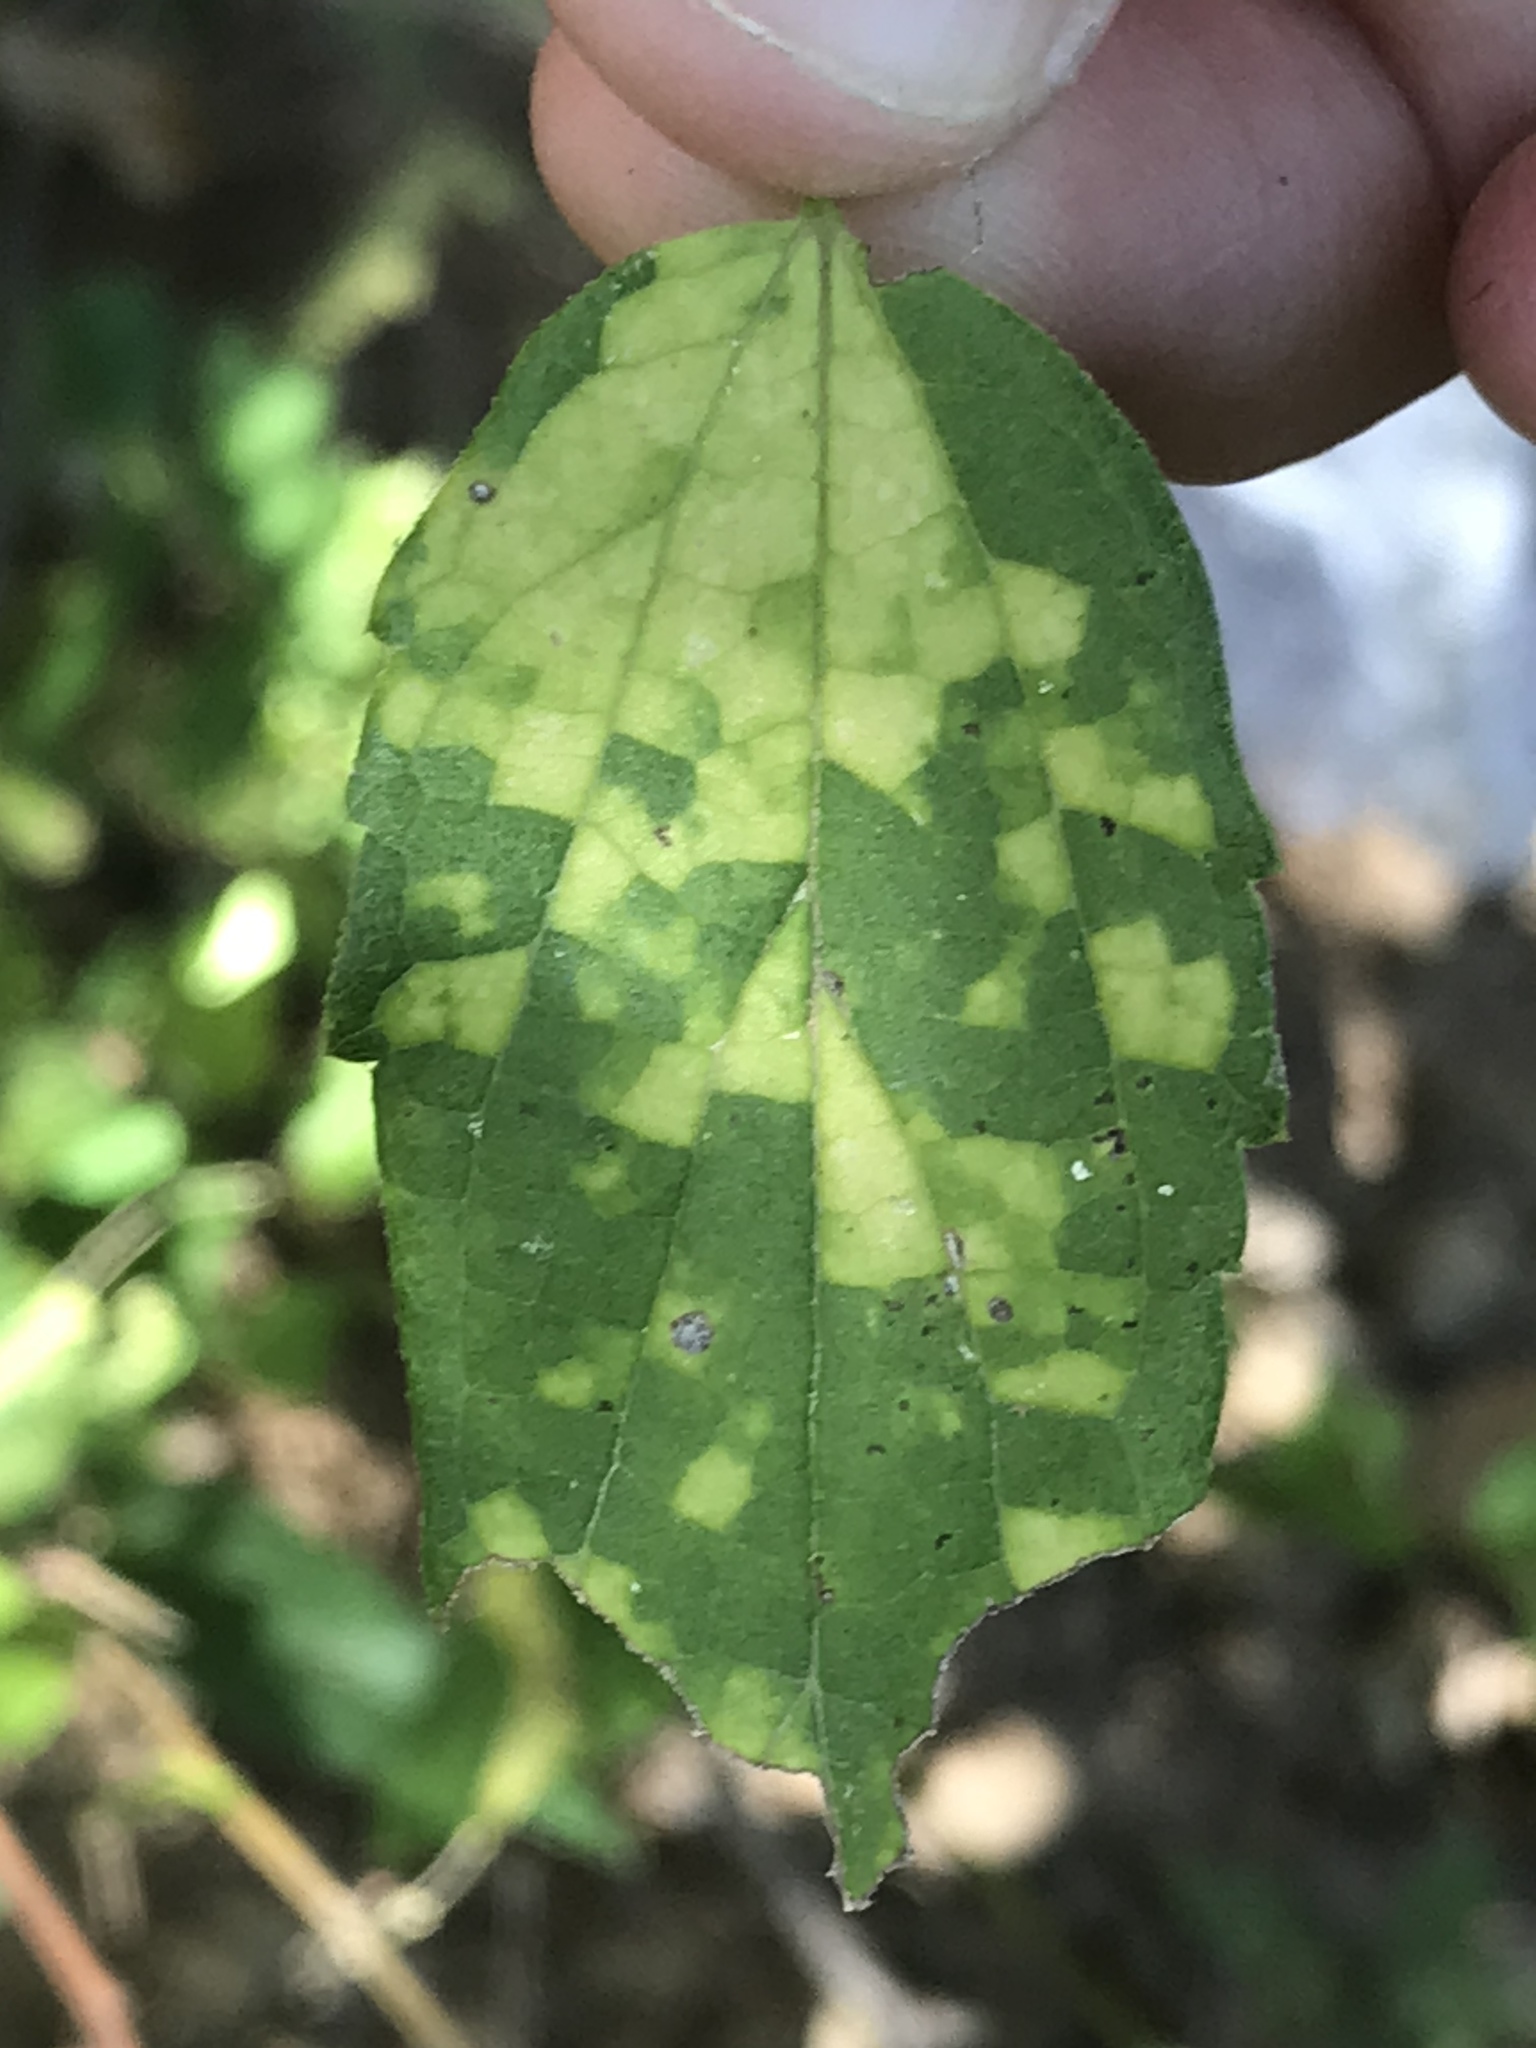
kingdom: Viruses
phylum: Kitrinoviricota
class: Alsuviricetes
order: Martellivirales
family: Closteroviridae
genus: Ampelovirus
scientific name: Ampelovirus
